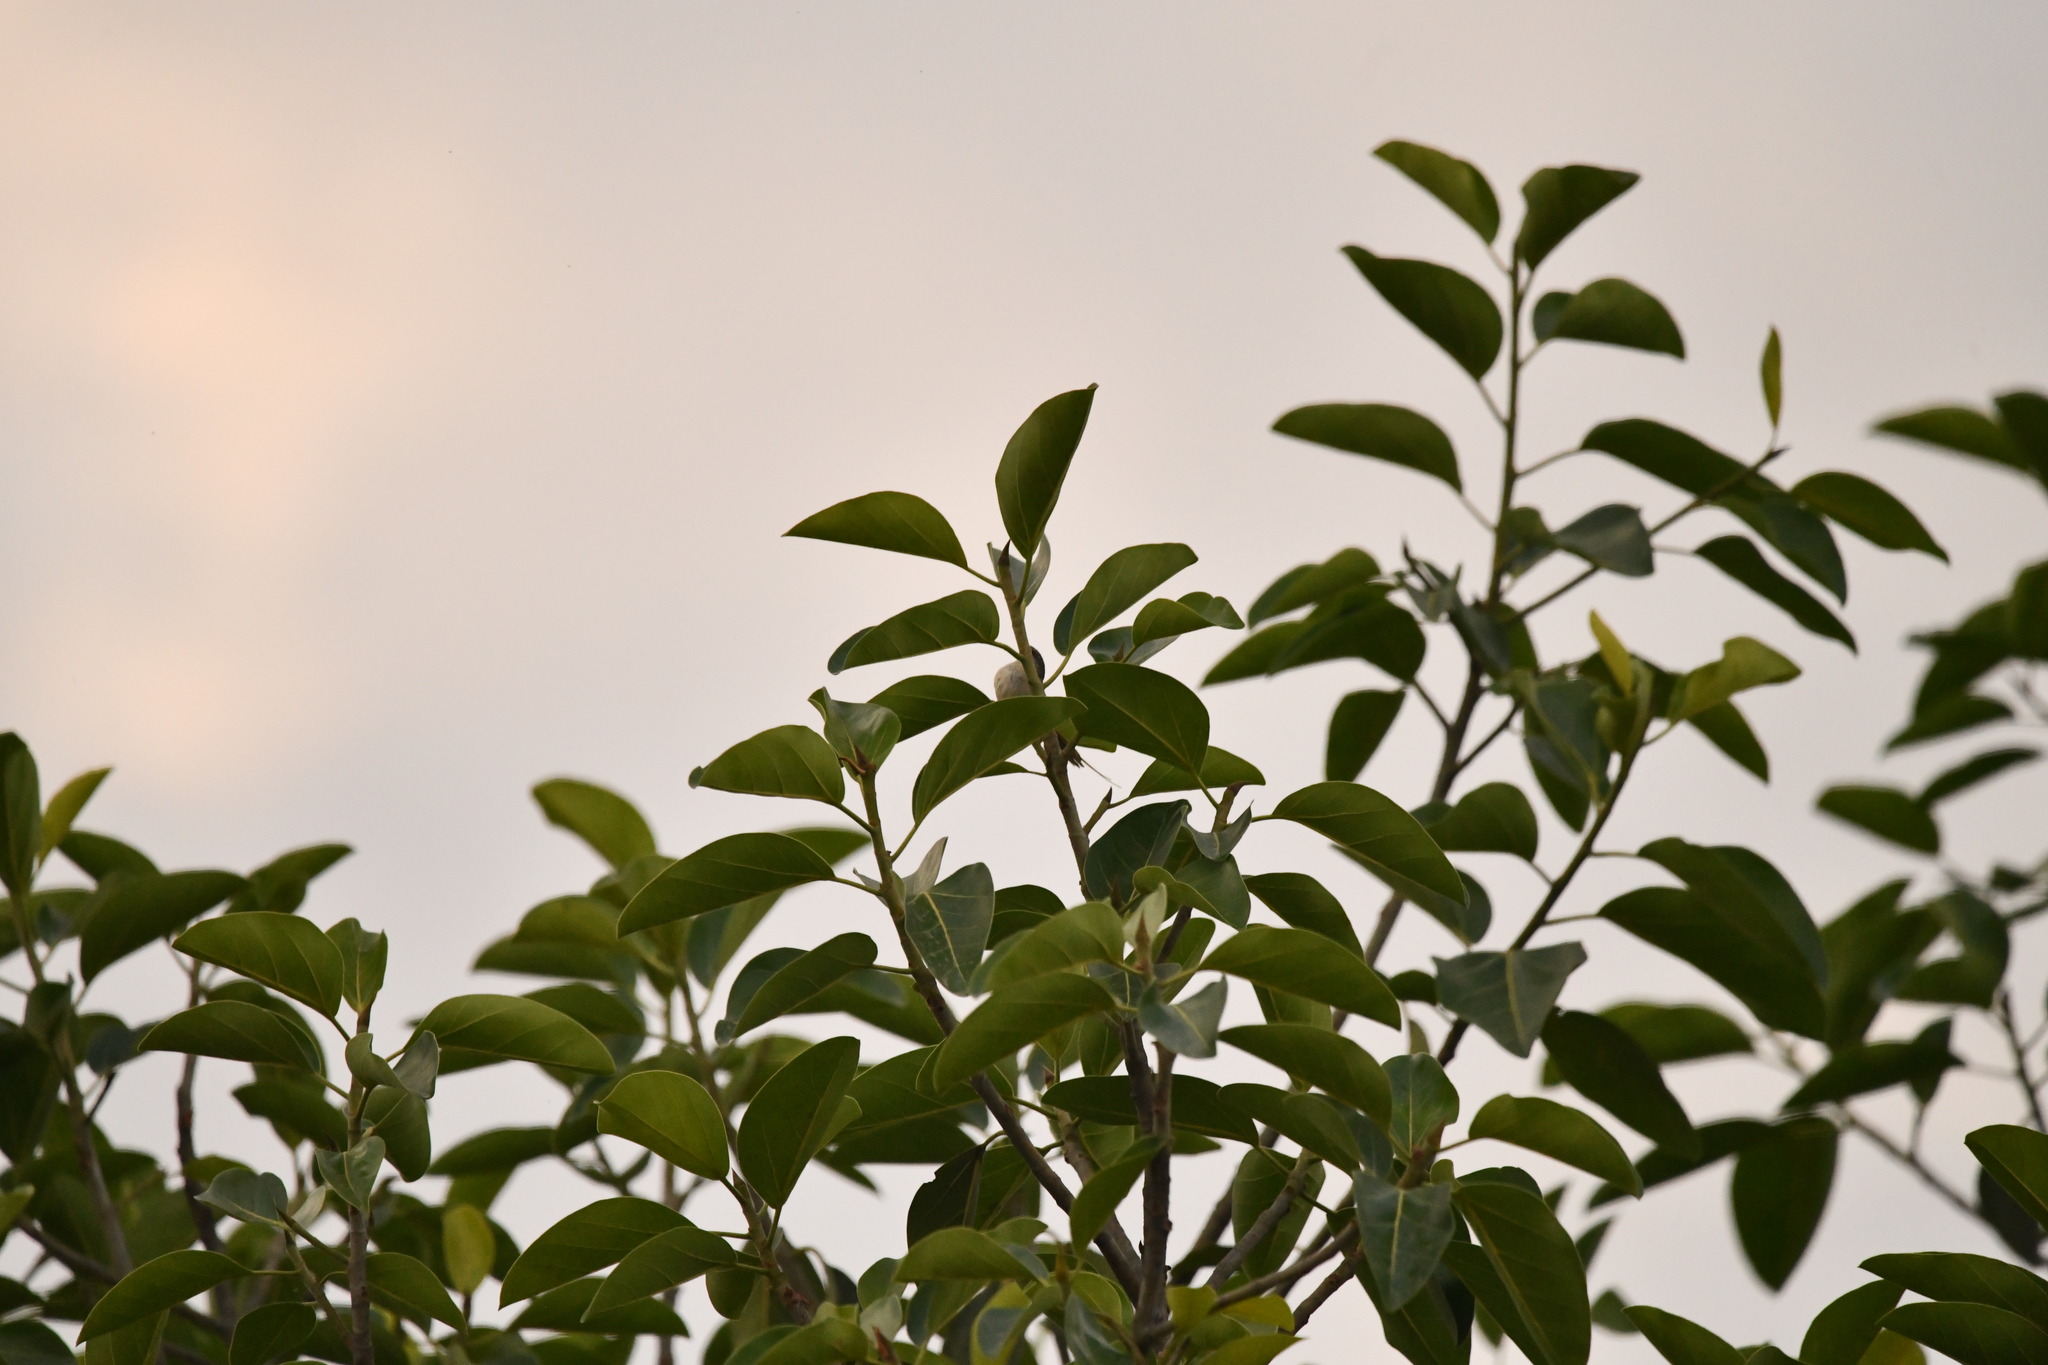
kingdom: Plantae
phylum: Tracheophyta
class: Magnoliopsida
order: Rosales
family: Moraceae
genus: Ficus
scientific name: Ficus benghalensis
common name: Indian banyan
